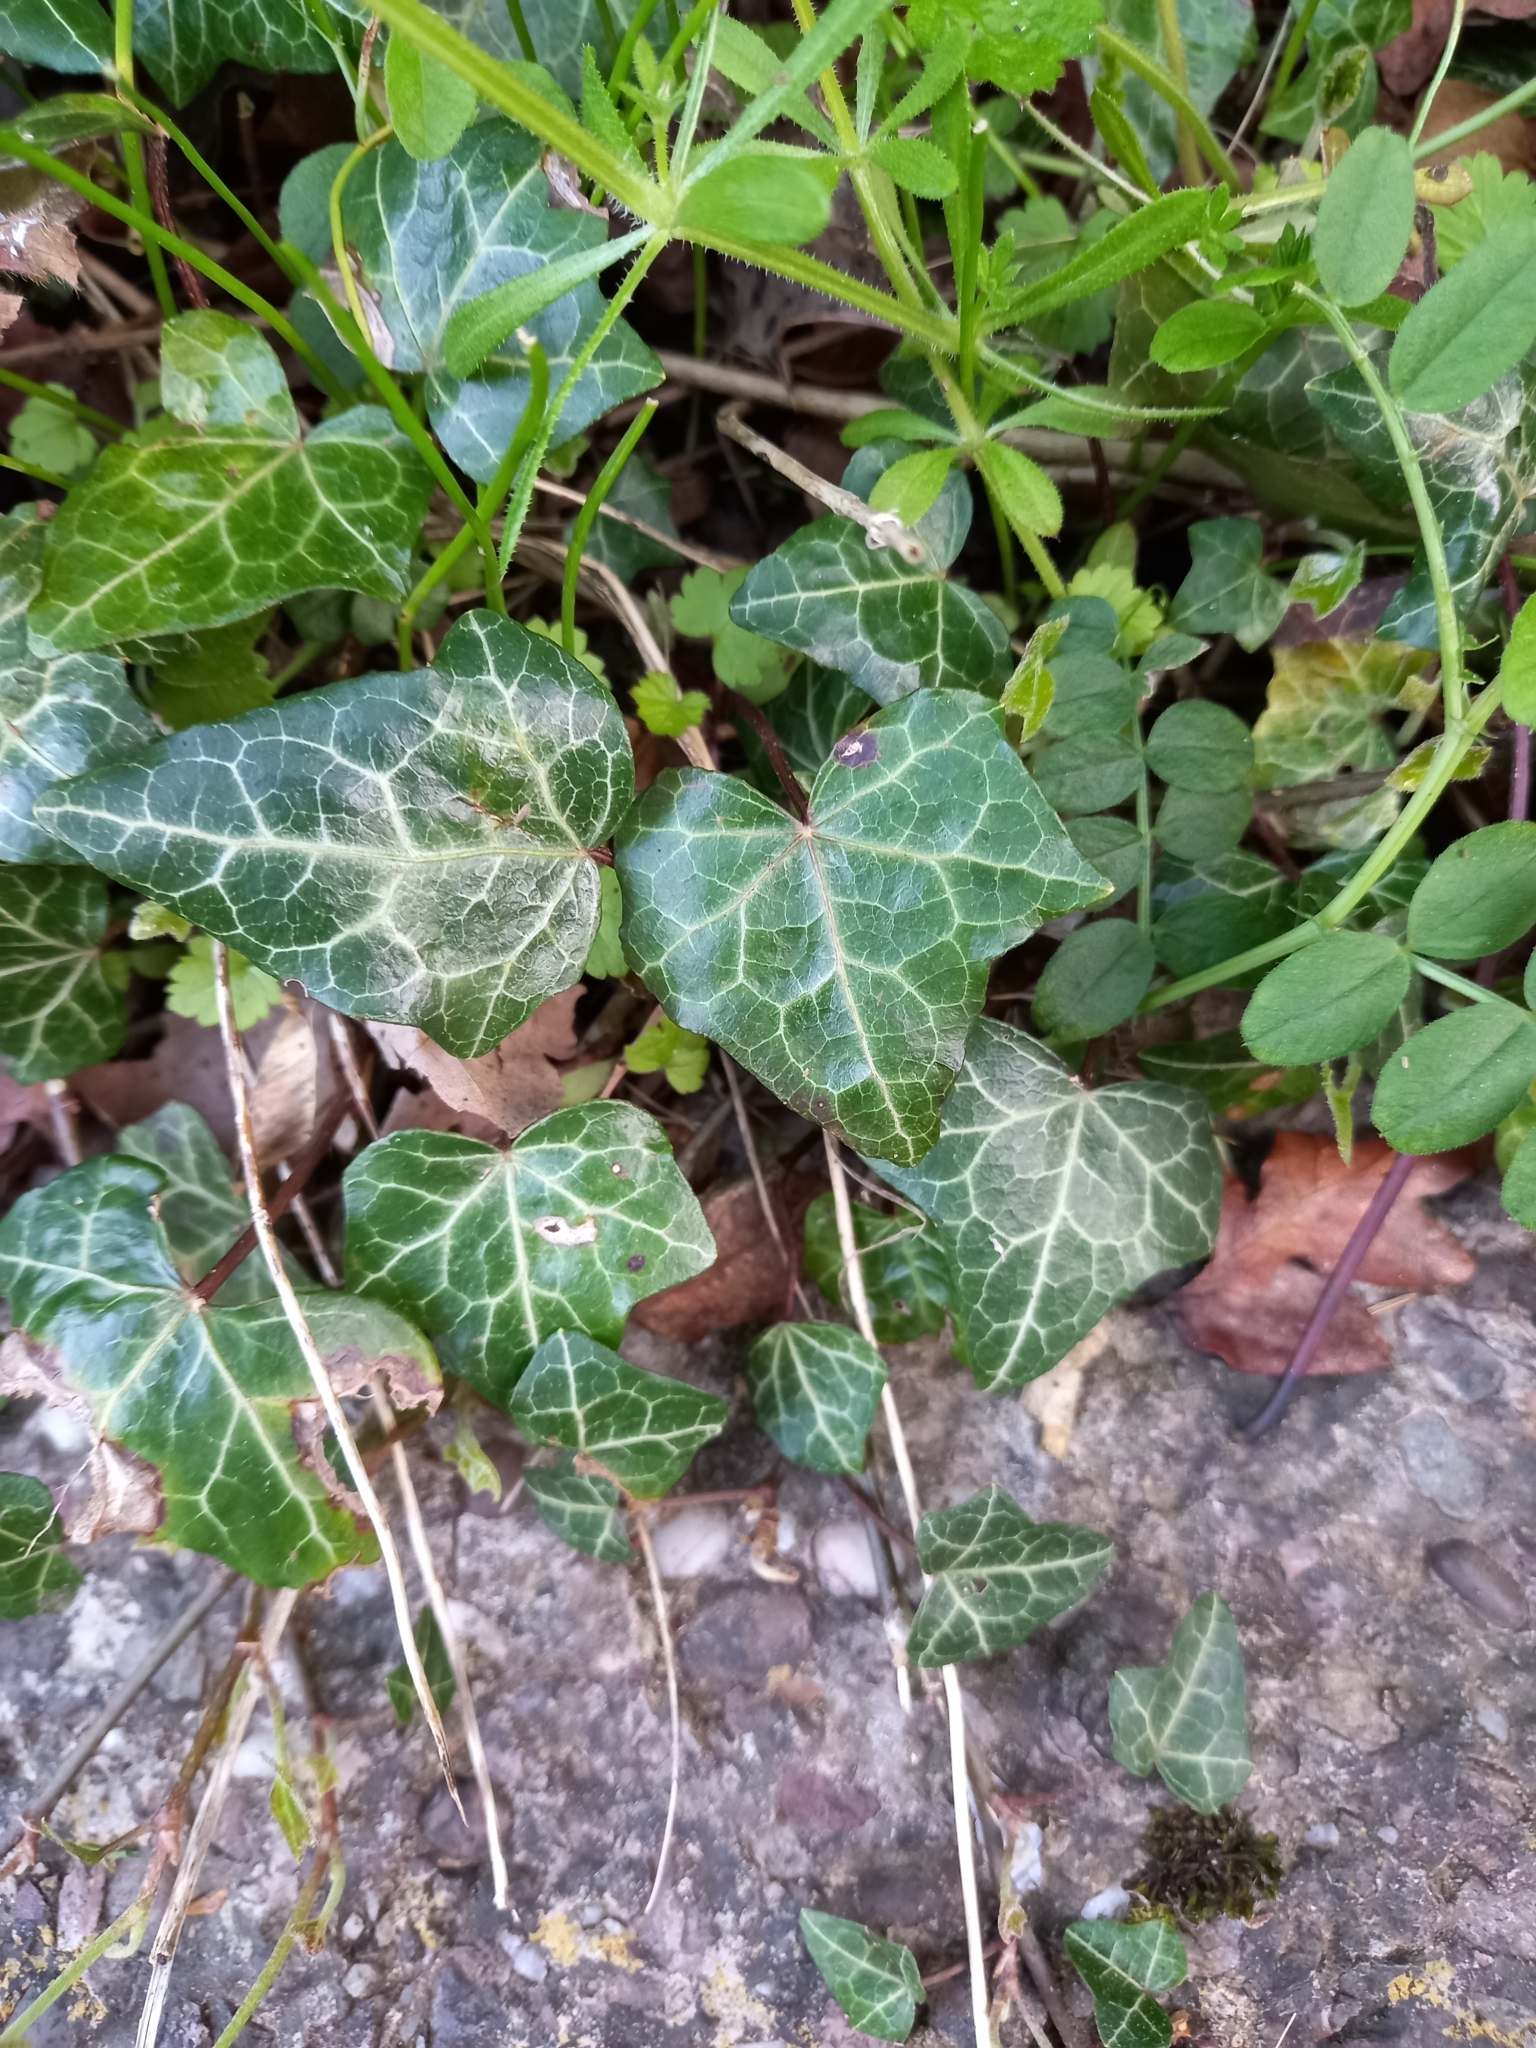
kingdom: Plantae
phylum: Tracheophyta
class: Magnoliopsida
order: Apiales
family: Araliaceae
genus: Hedera
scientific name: Hedera helix
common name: Ivy
